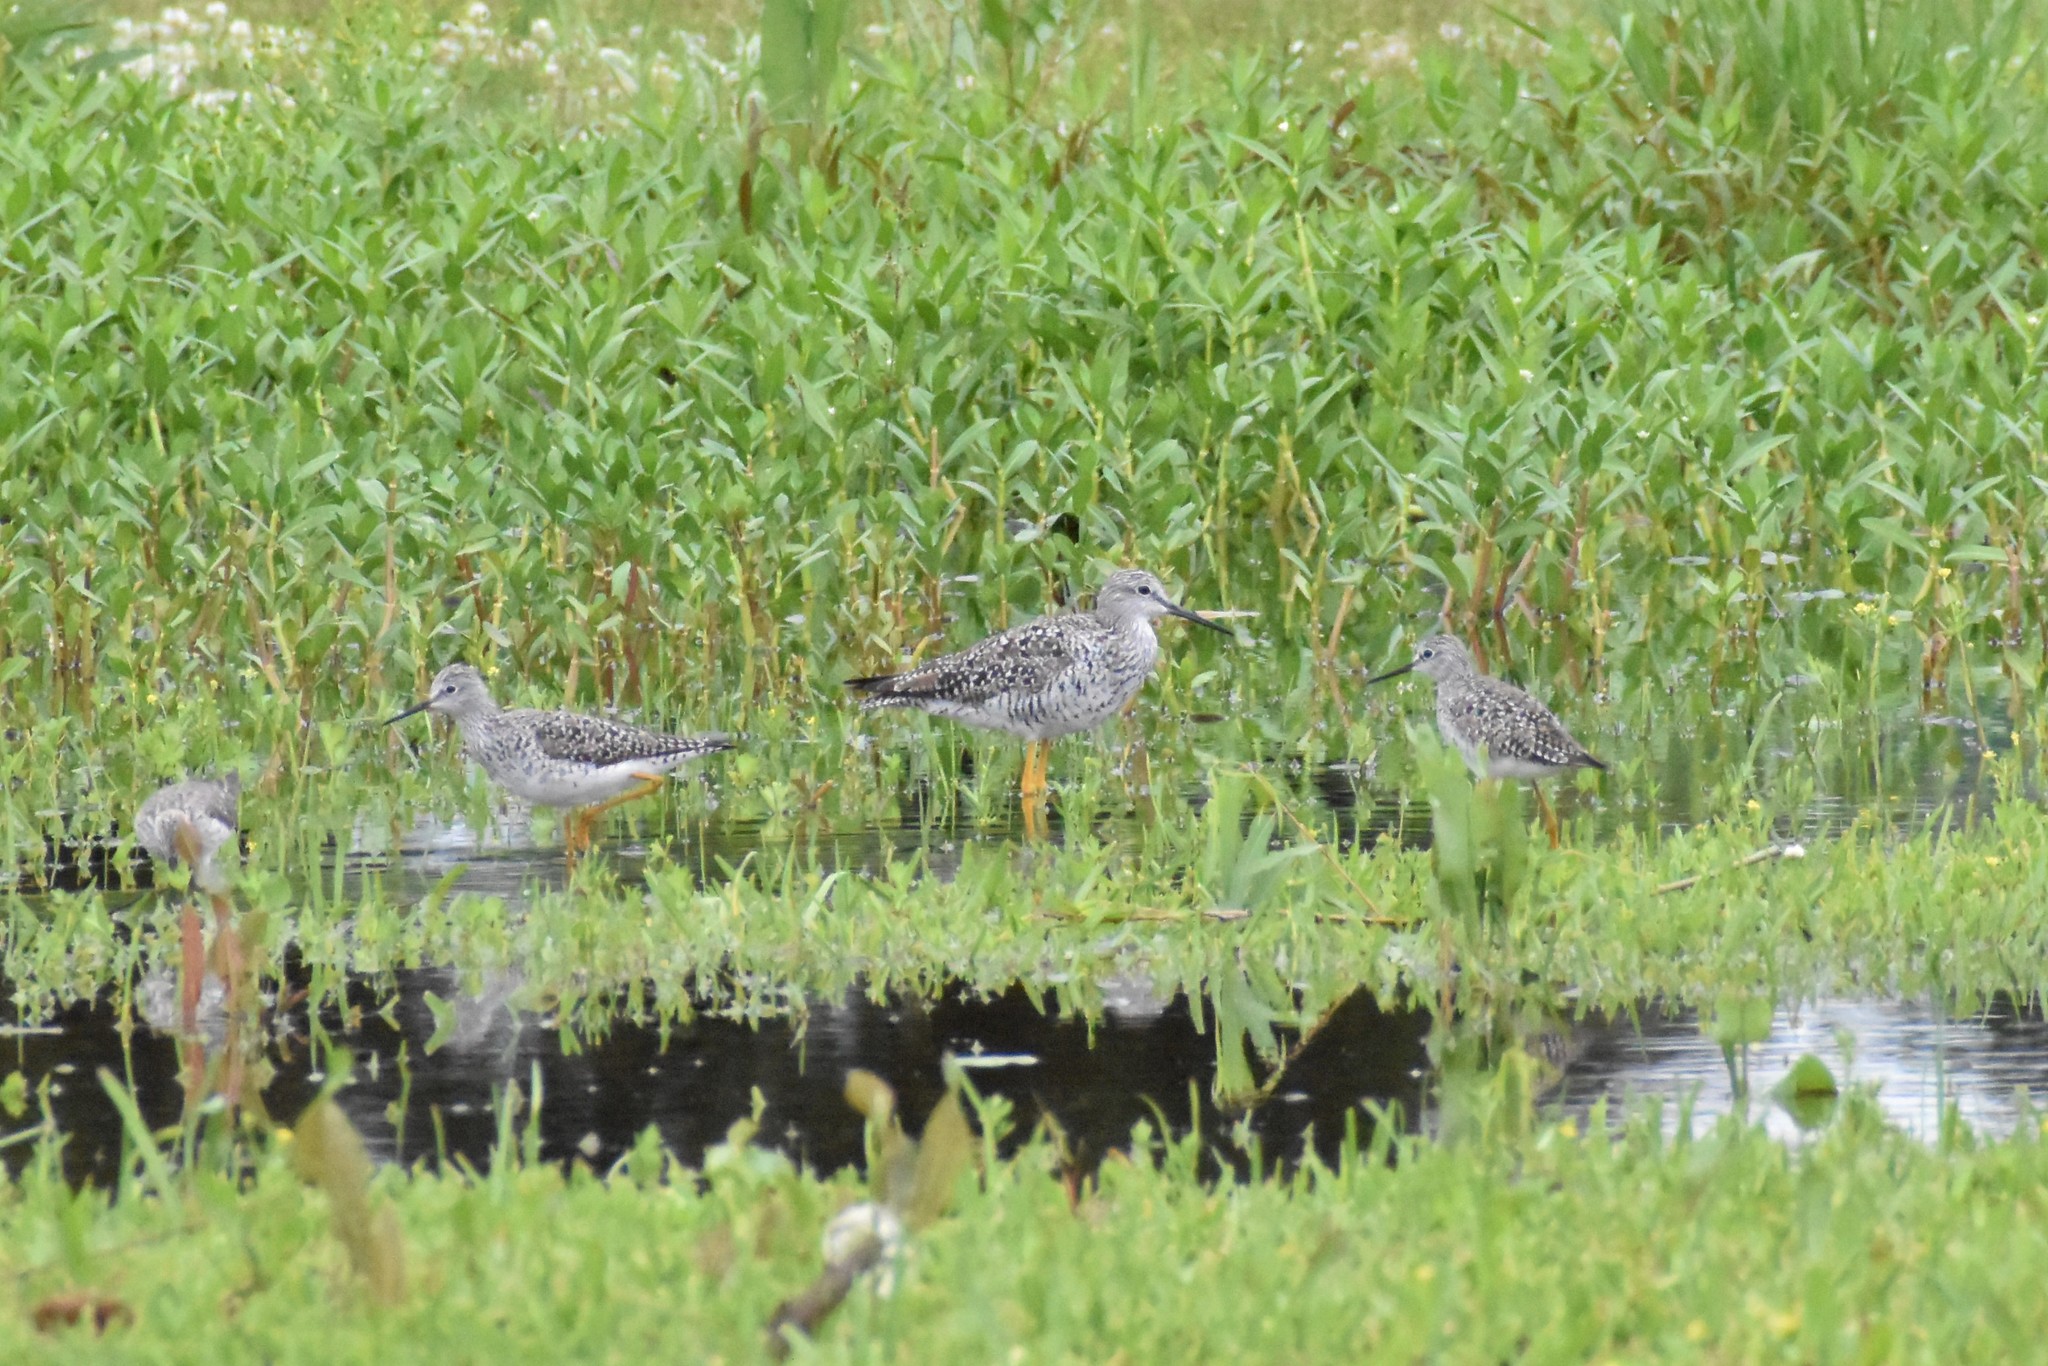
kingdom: Animalia
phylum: Chordata
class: Aves
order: Charadriiformes
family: Scolopacidae
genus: Tringa
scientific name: Tringa melanoleuca
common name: Greater yellowlegs
